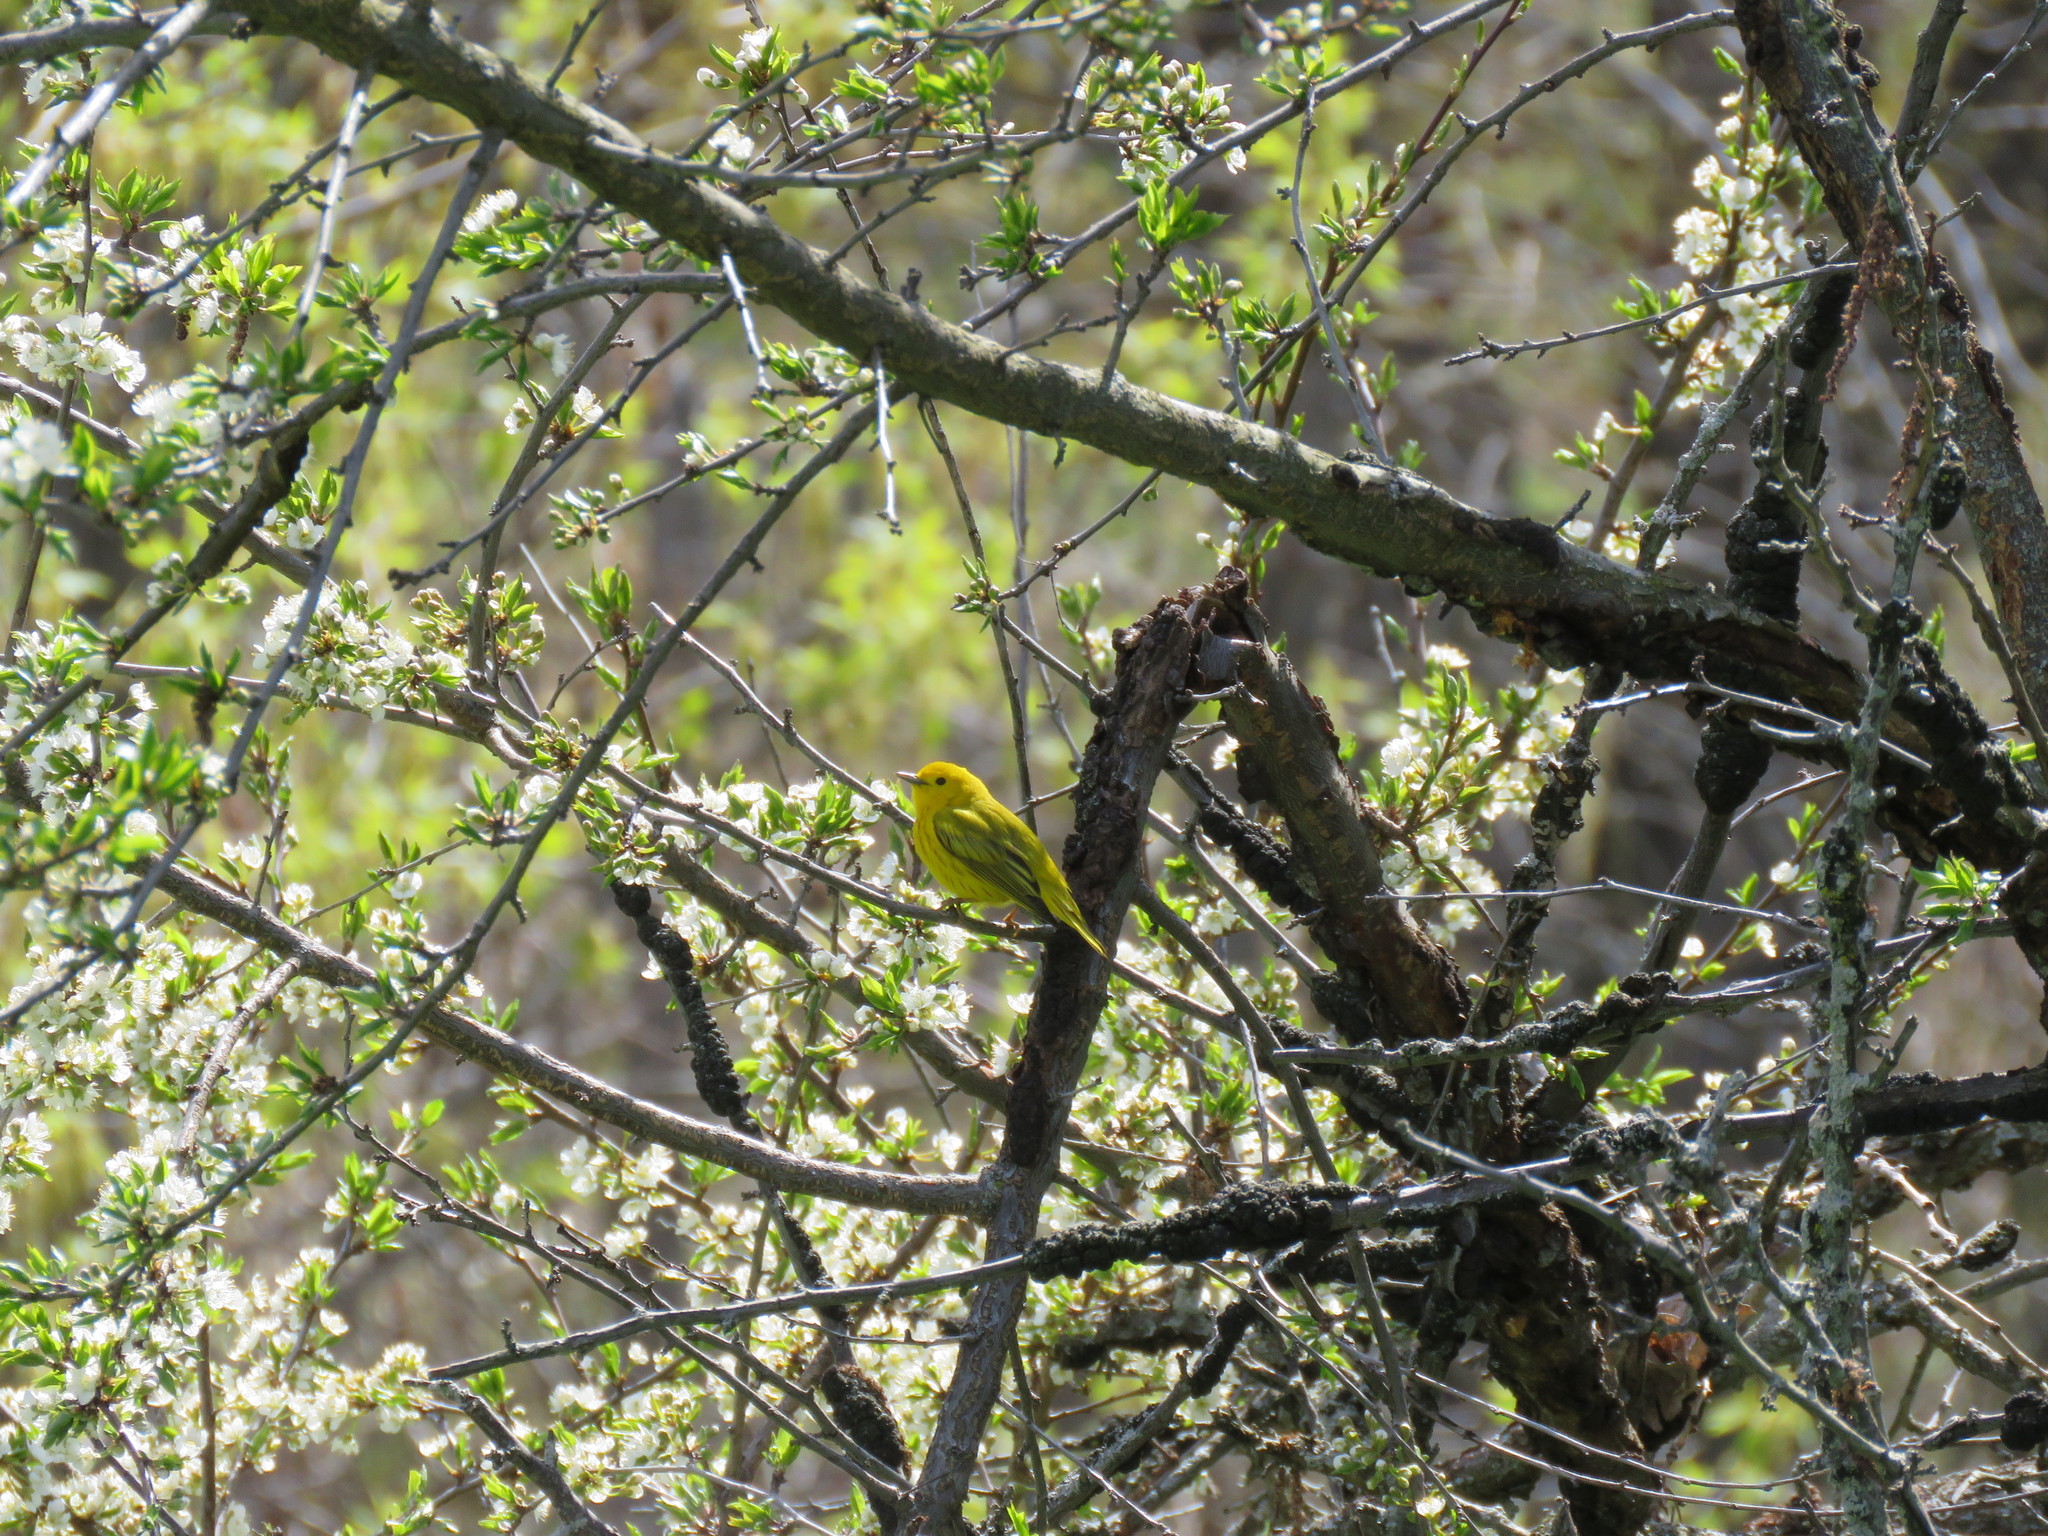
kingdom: Animalia
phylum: Chordata
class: Aves
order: Passeriformes
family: Parulidae
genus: Setophaga
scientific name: Setophaga petechia
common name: Yellow warbler
